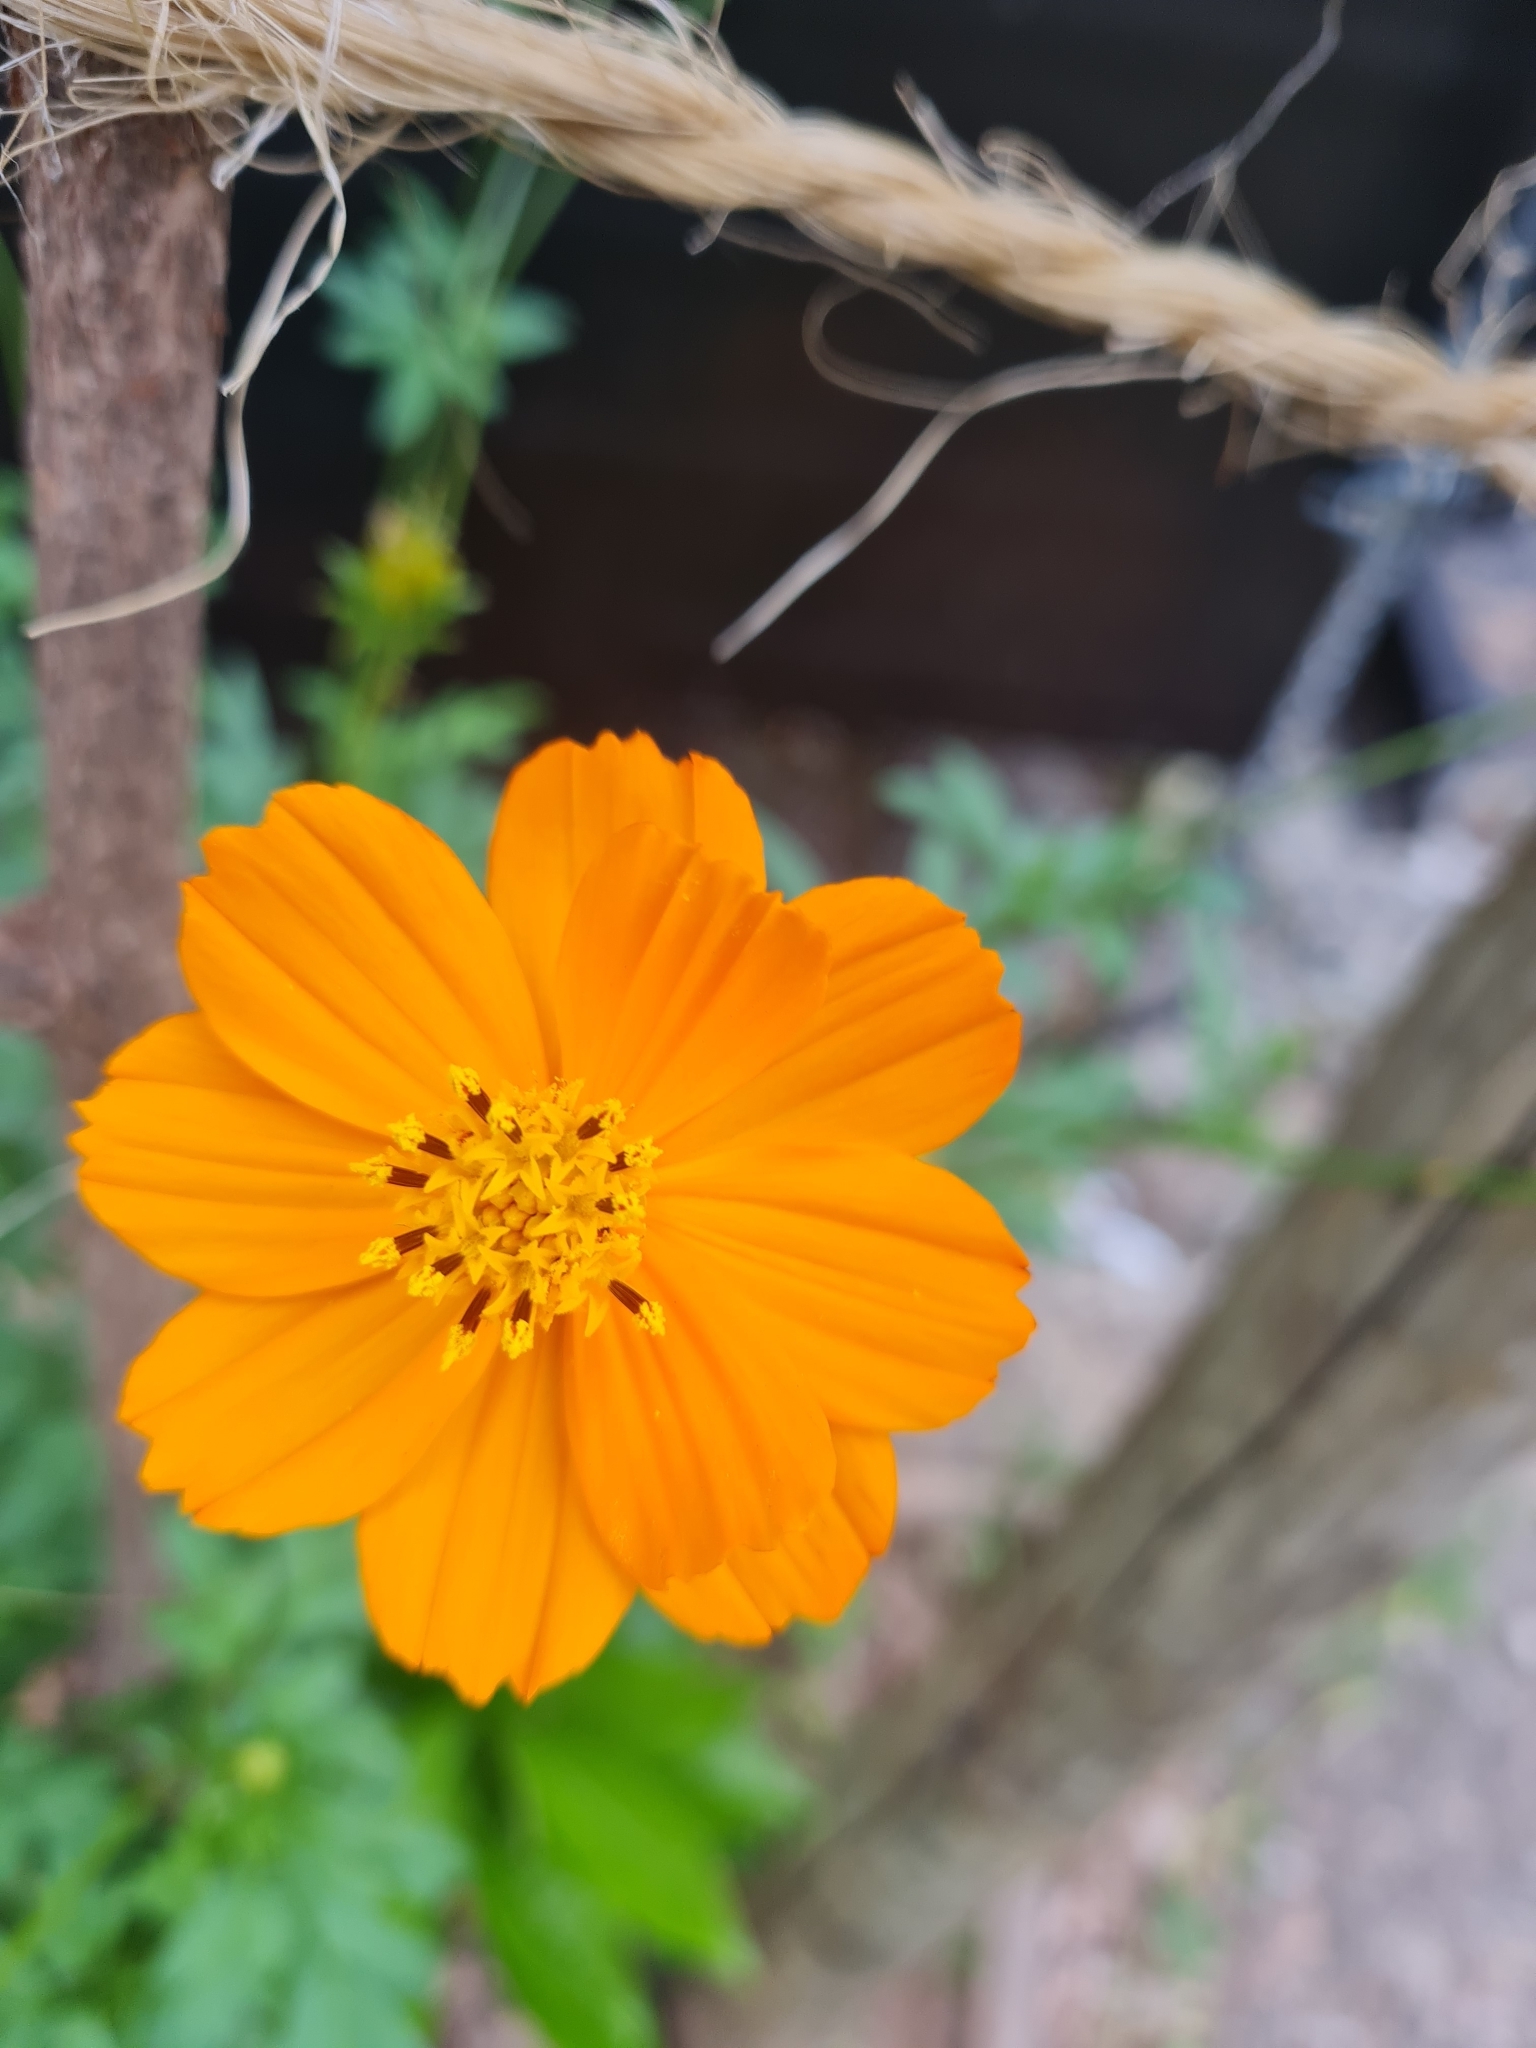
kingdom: Plantae
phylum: Tracheophyta
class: Magnoliopsida
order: Asterales
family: Asteraceae
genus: Cosmos
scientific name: Cosmos sulphureus
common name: Sulphur cosmos
